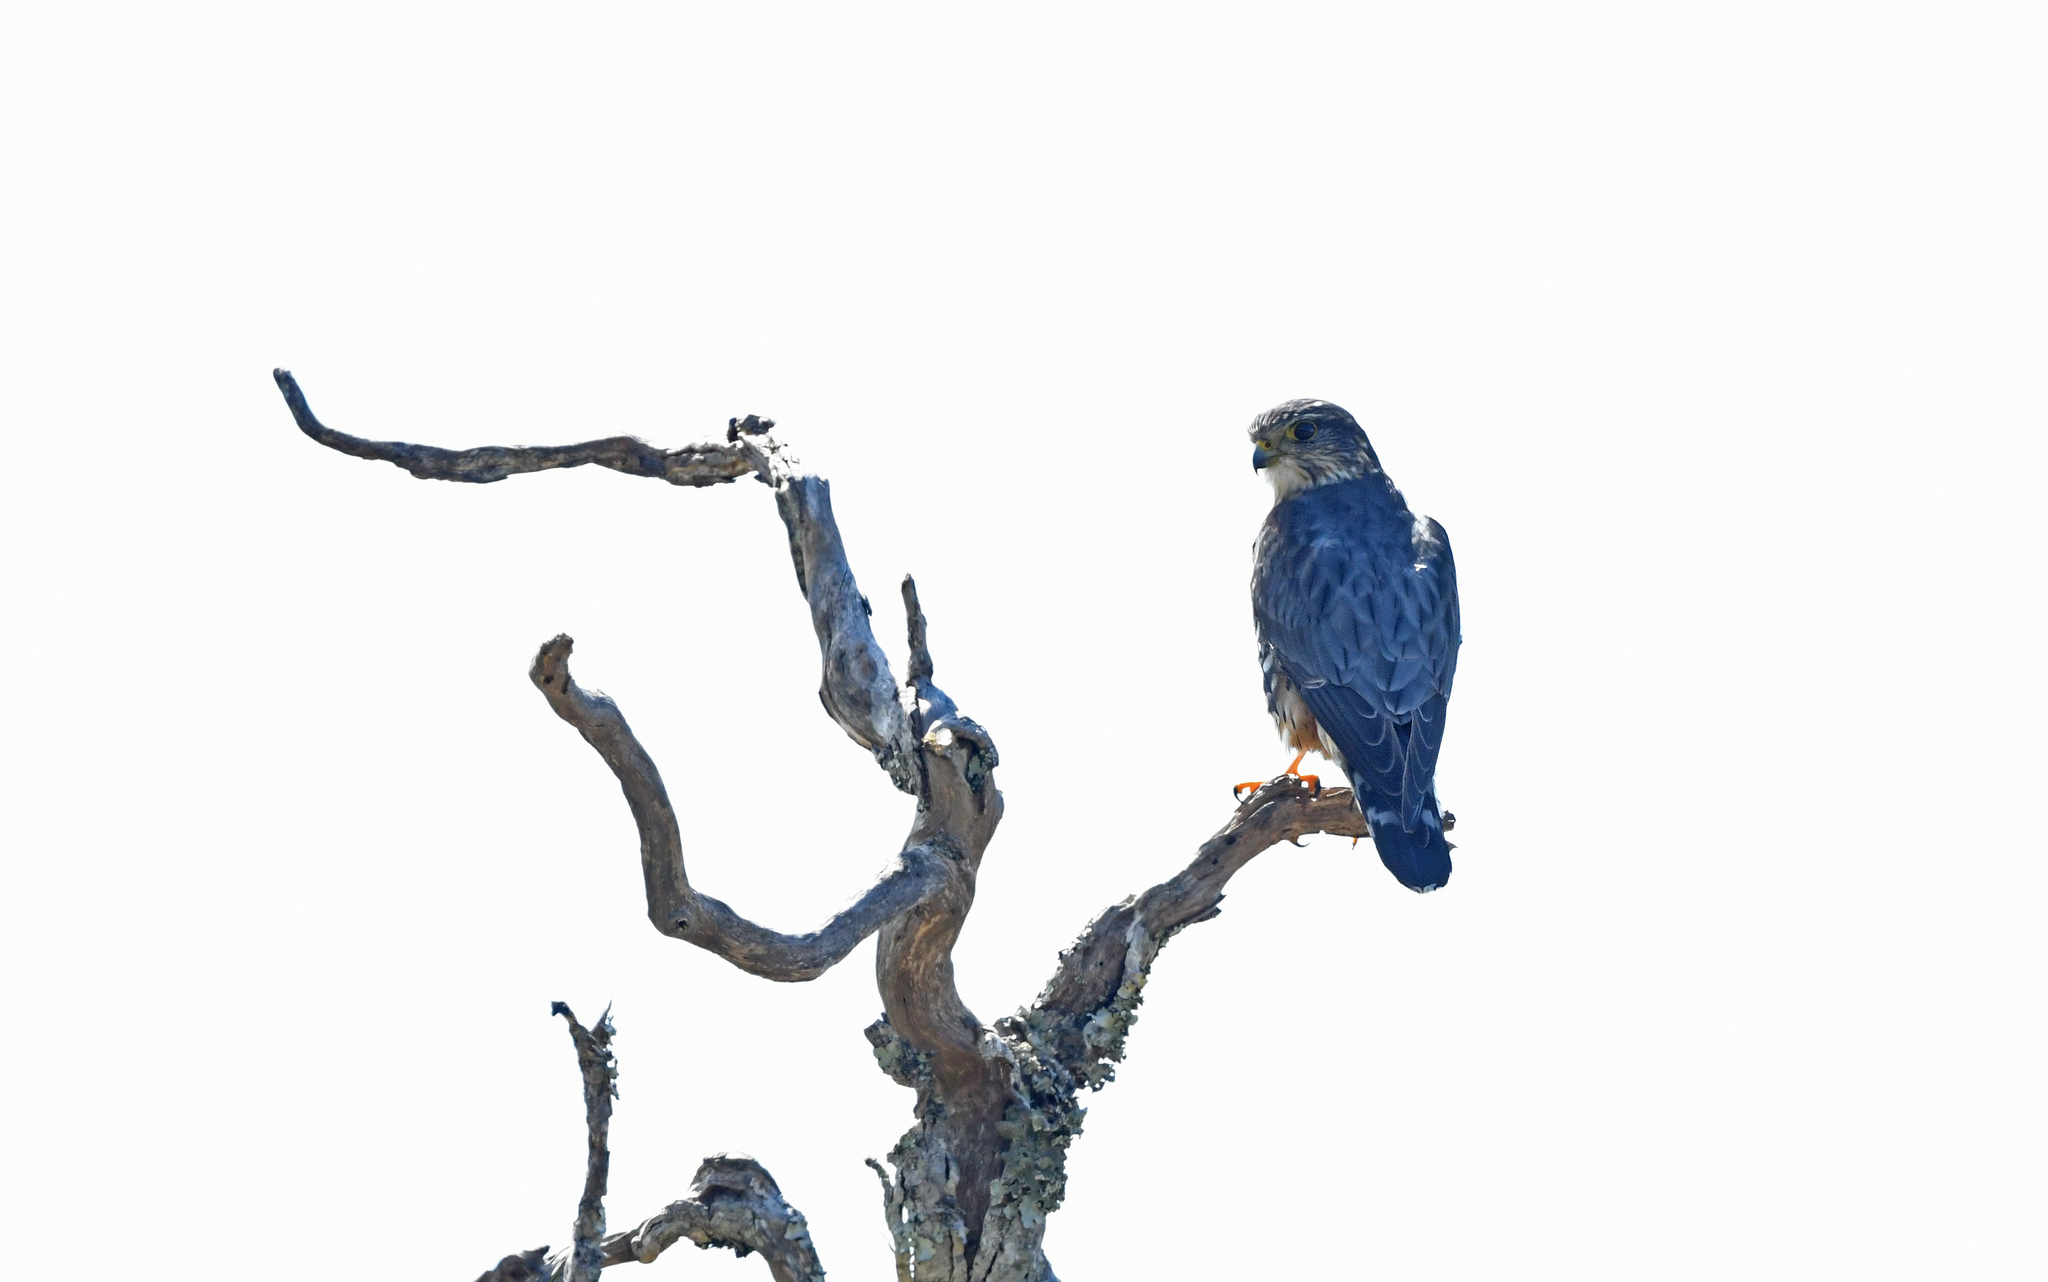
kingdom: Animalia
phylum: Chordata
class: Aves
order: Falconiformes
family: Falconidae
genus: Falco
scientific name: Falco columbarius
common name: Merlin
